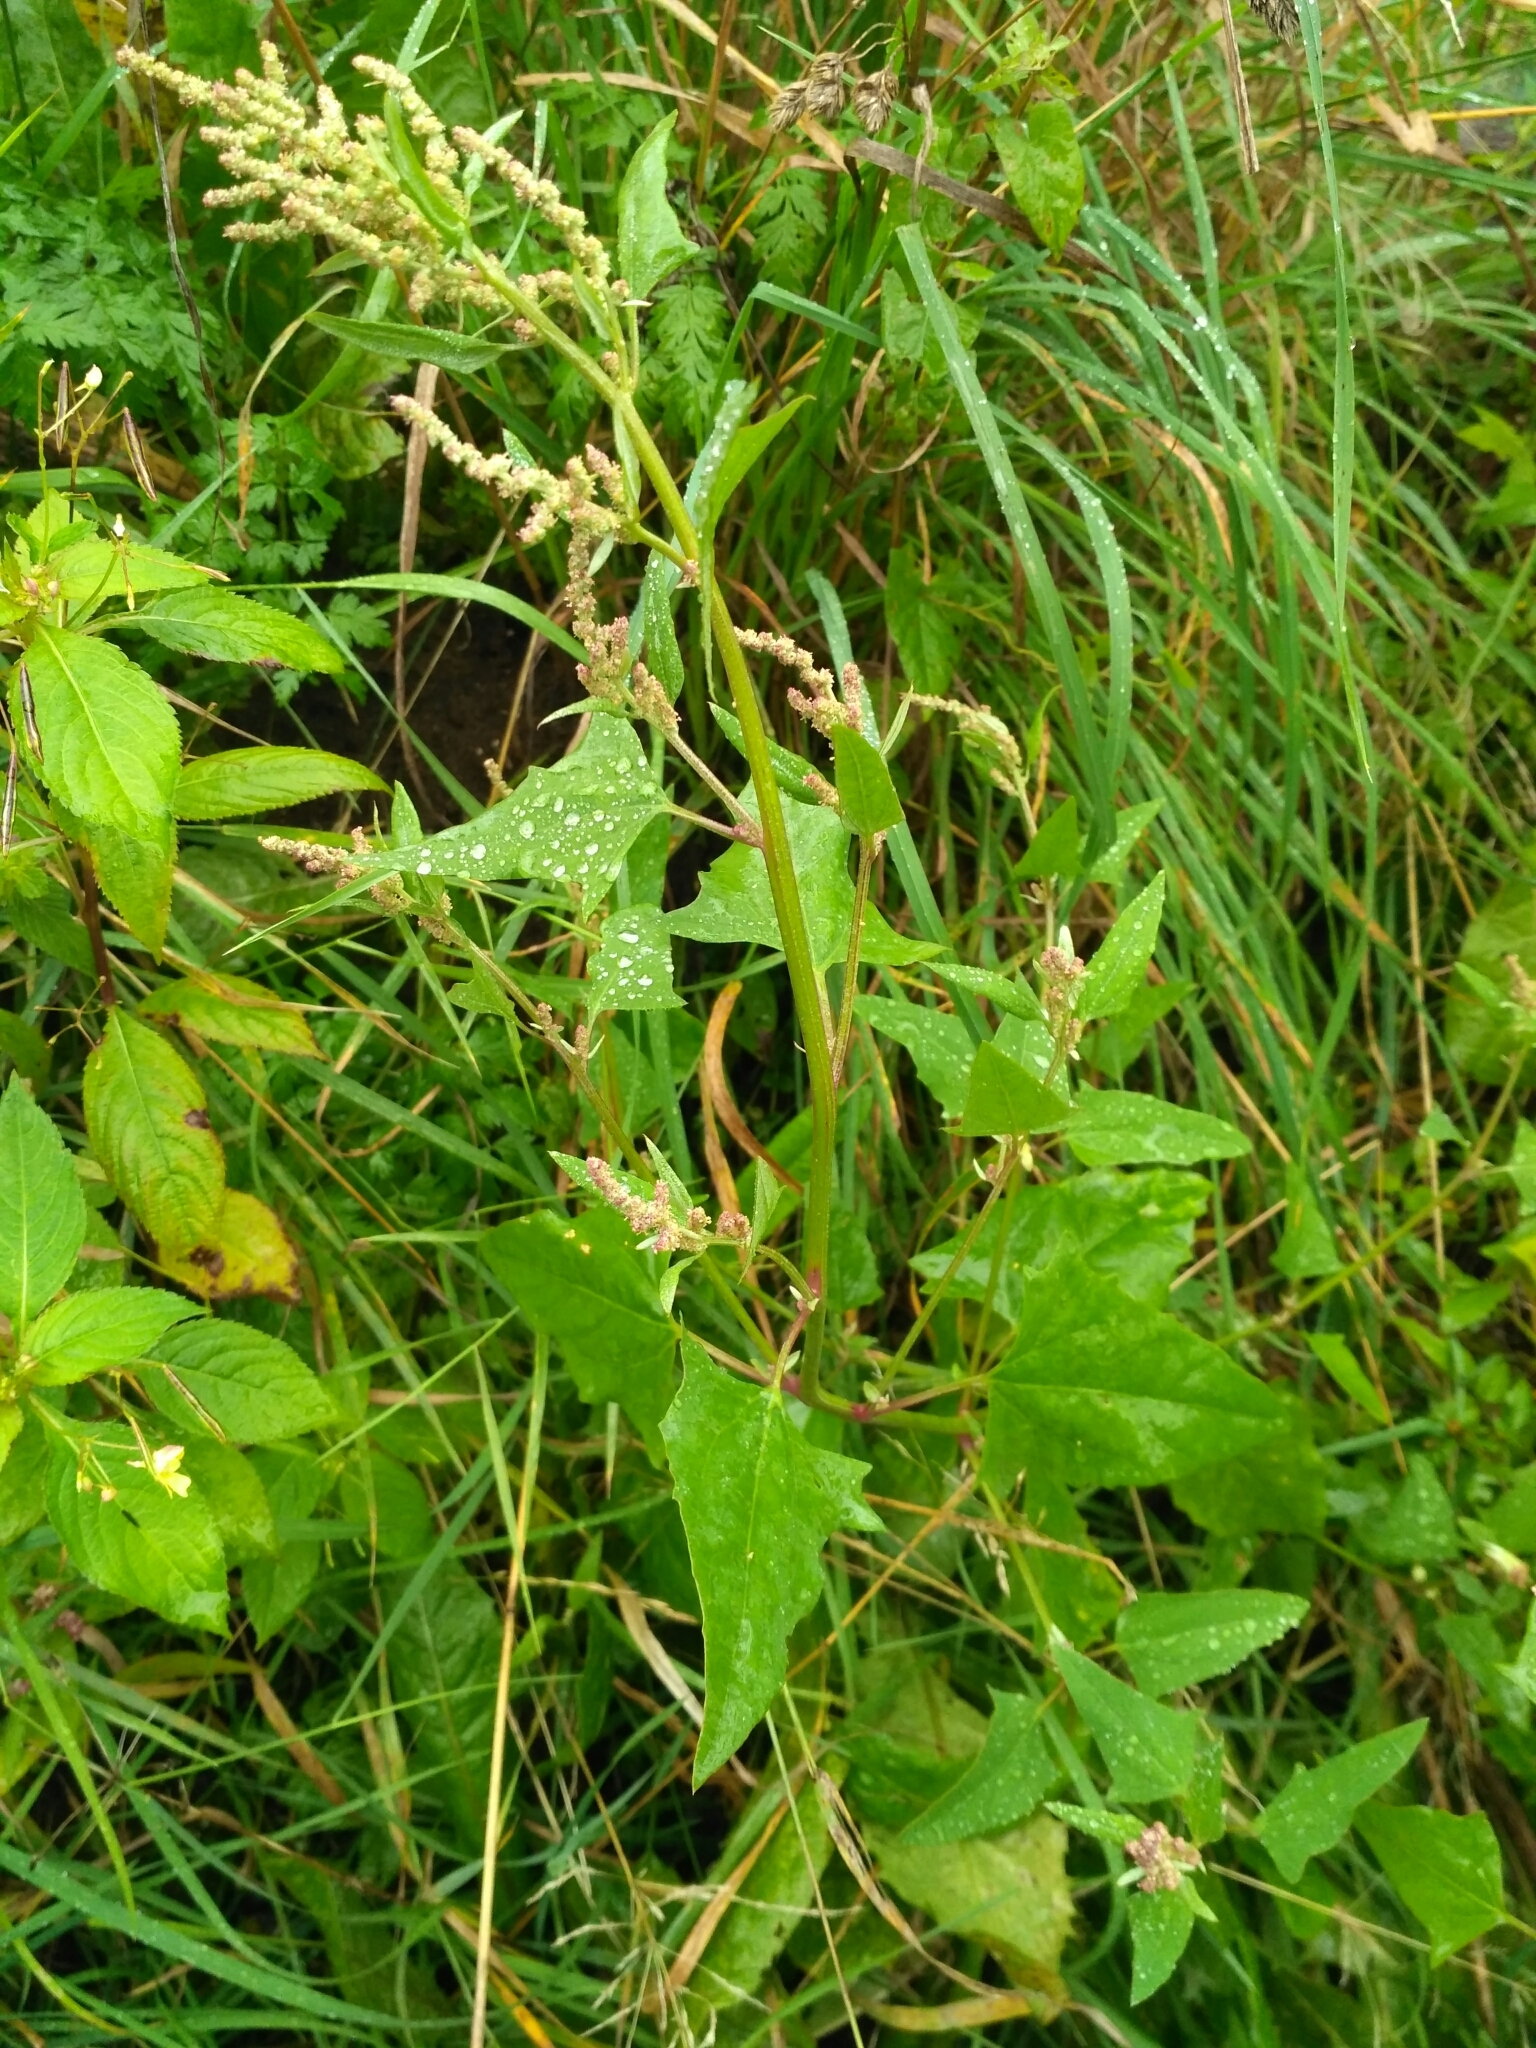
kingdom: Plantae
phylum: Tracheophyta
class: Magnoliopsida
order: Caryophyllales
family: Amaranthaceae
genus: Atriplex
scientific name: Atriplex prostrata
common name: Spear-leaved orache
